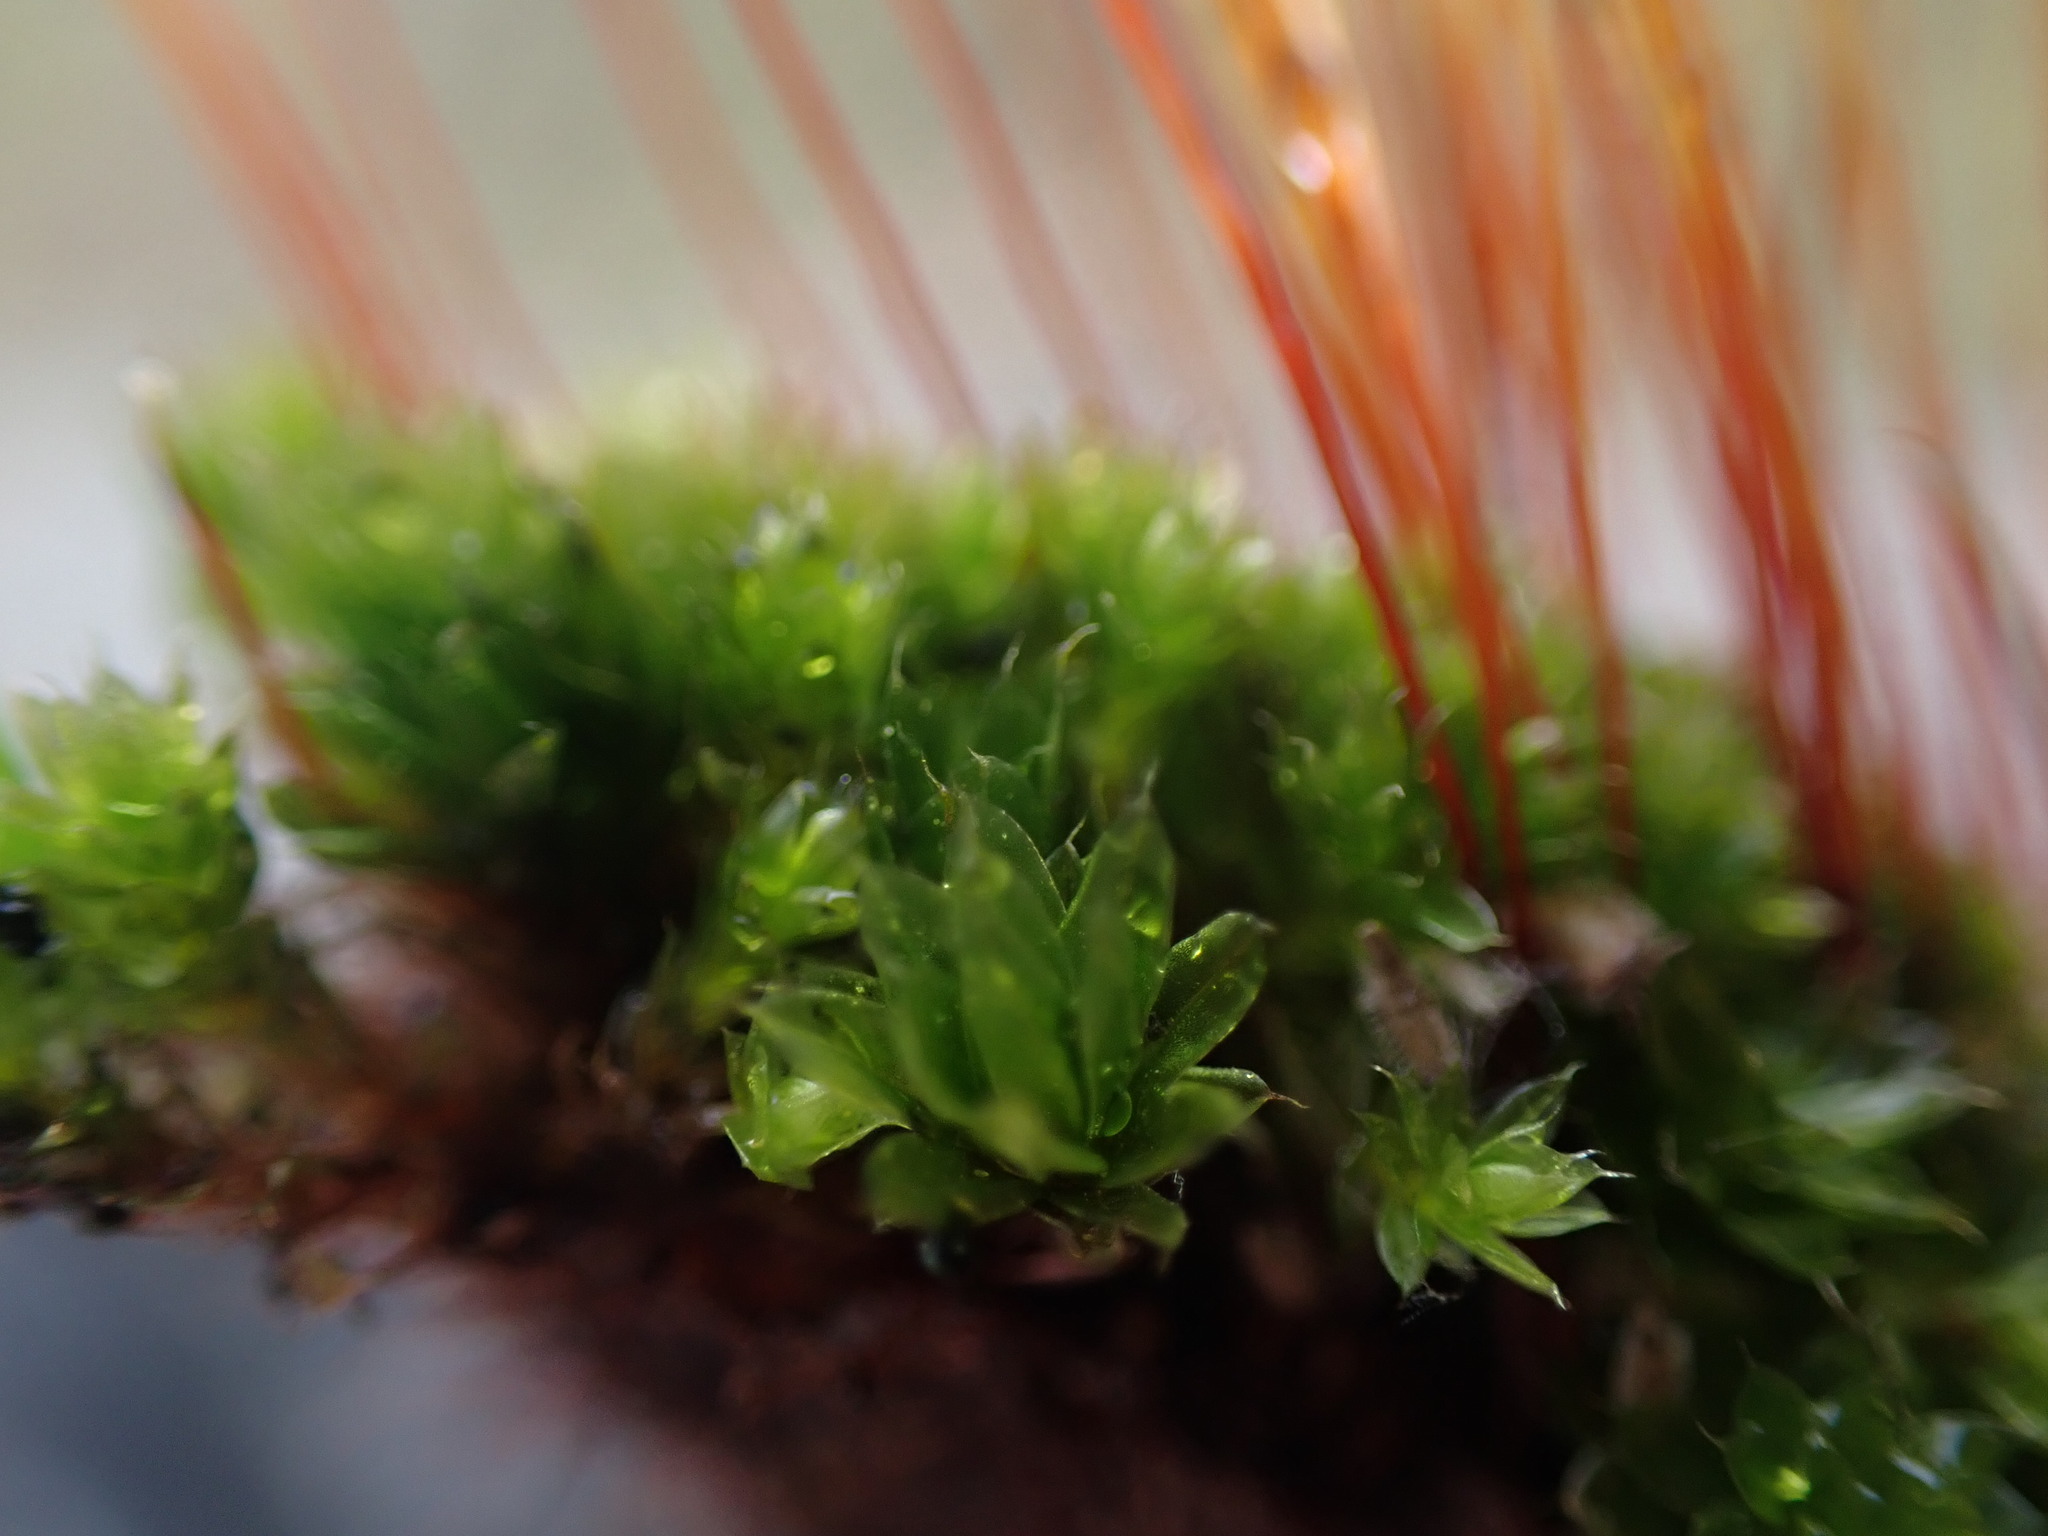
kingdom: Plantae
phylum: Bryophyta
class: Bryopsida
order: Bryales
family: Bryaceae
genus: Rosulabryum
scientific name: Rosulabryum capillare
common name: Capillary thread-moss
